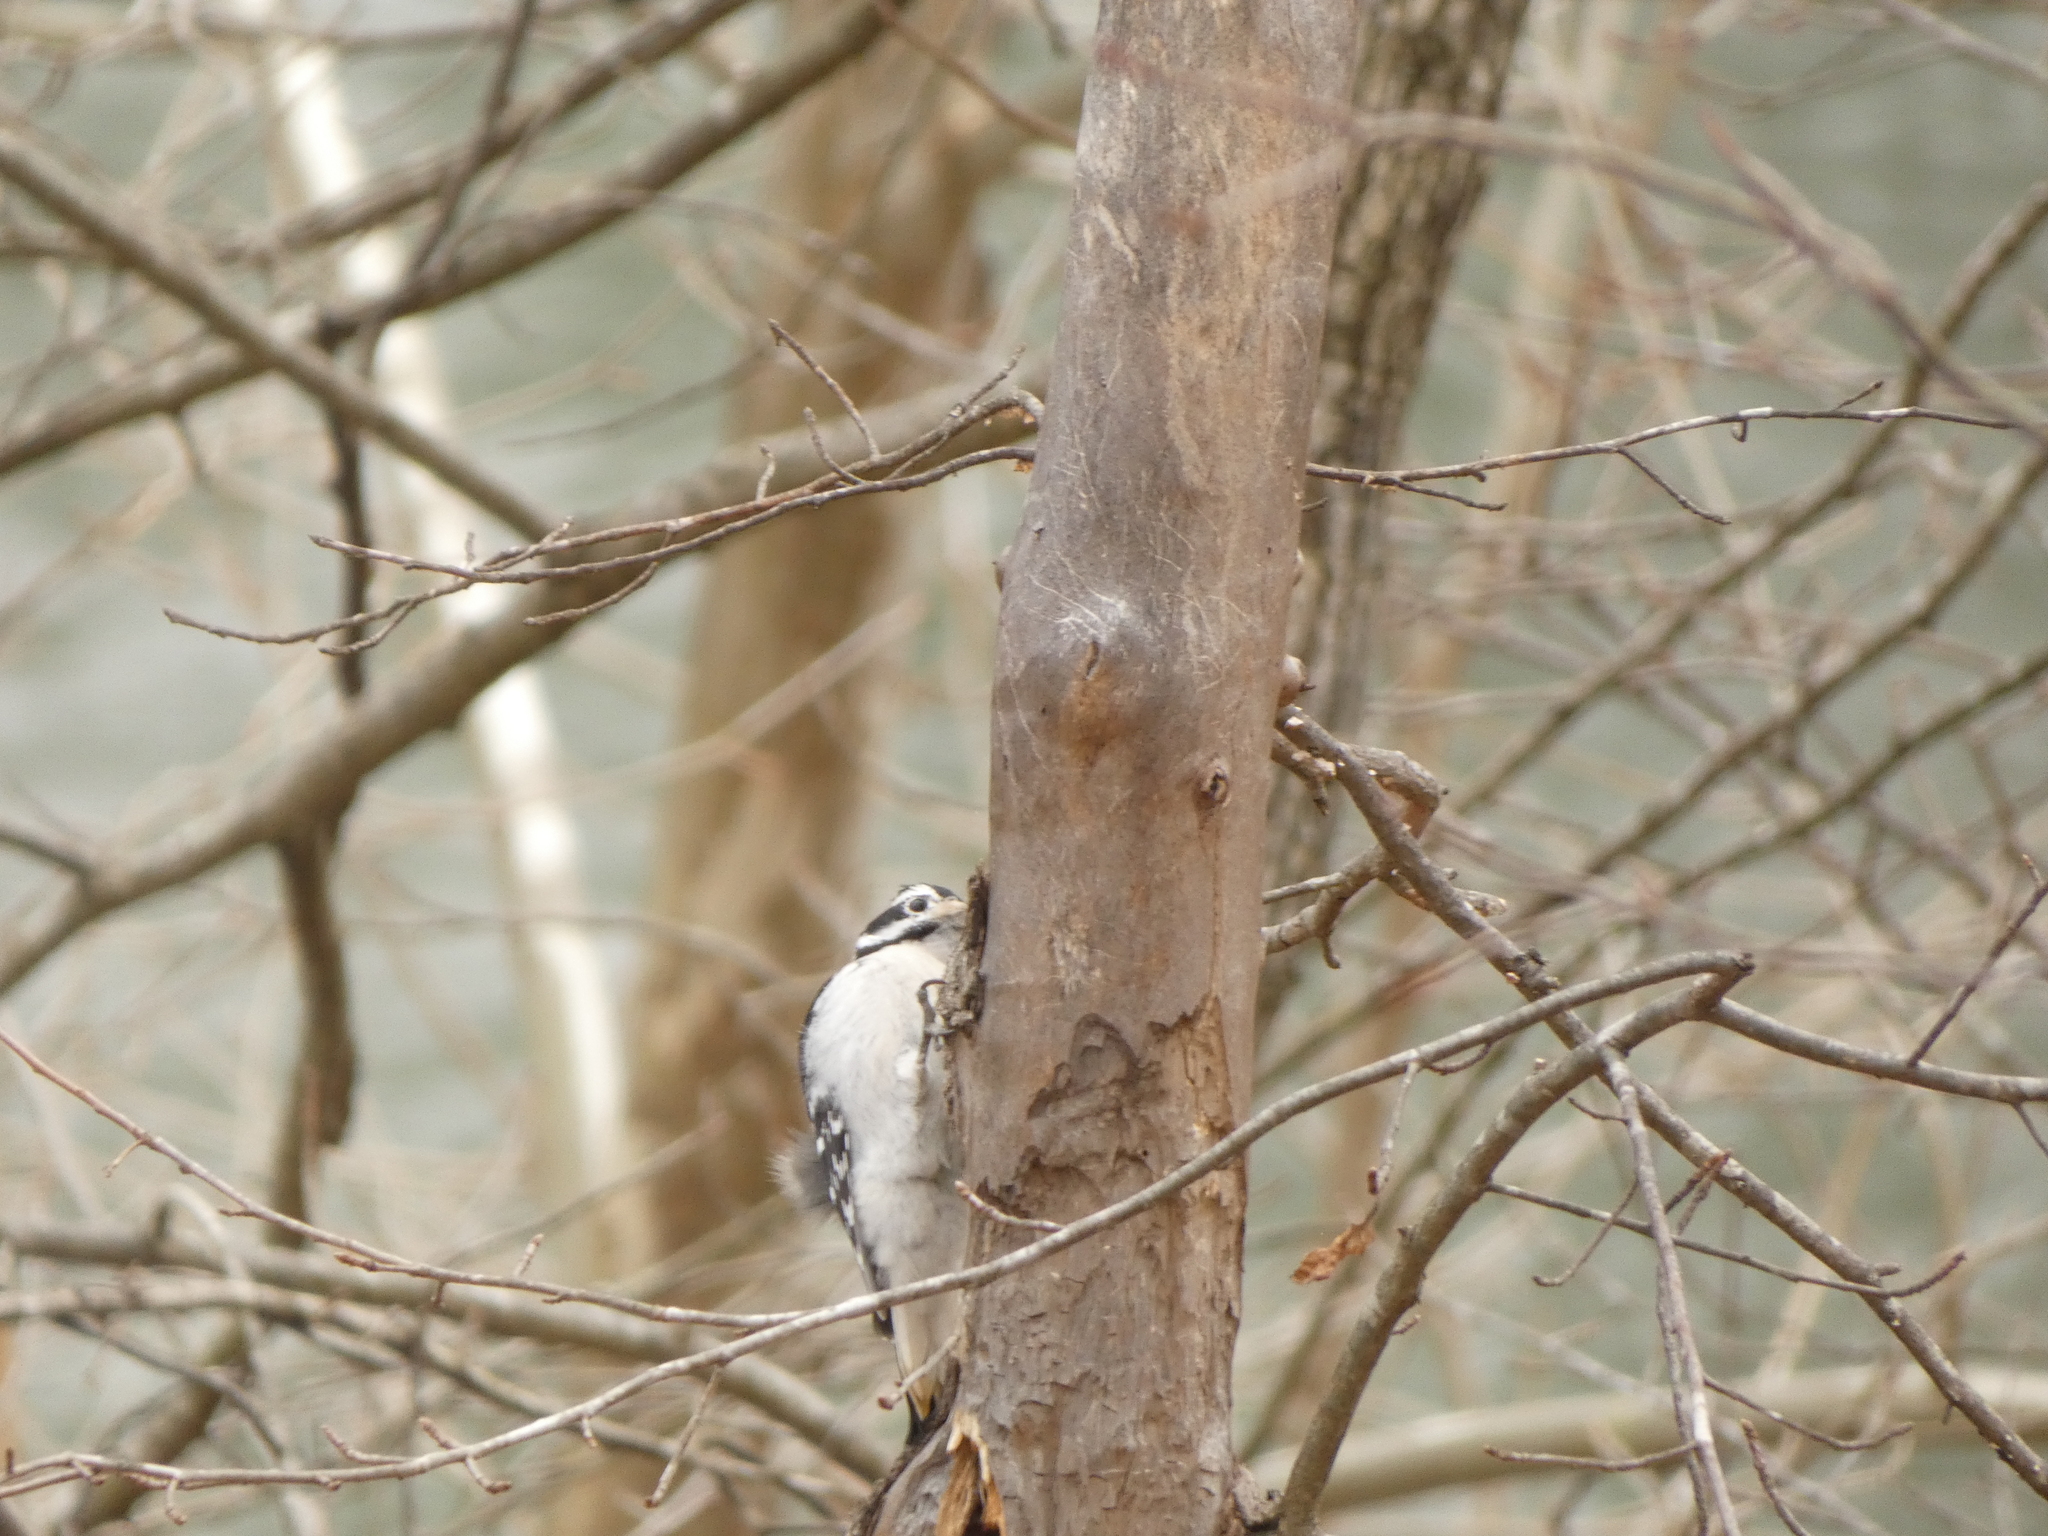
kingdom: Animalia
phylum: Chordata
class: Aves
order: Piciformes
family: Picidae
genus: Leuconotopicus
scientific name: Leuconotopicus villosus
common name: Hairy woodpecker
